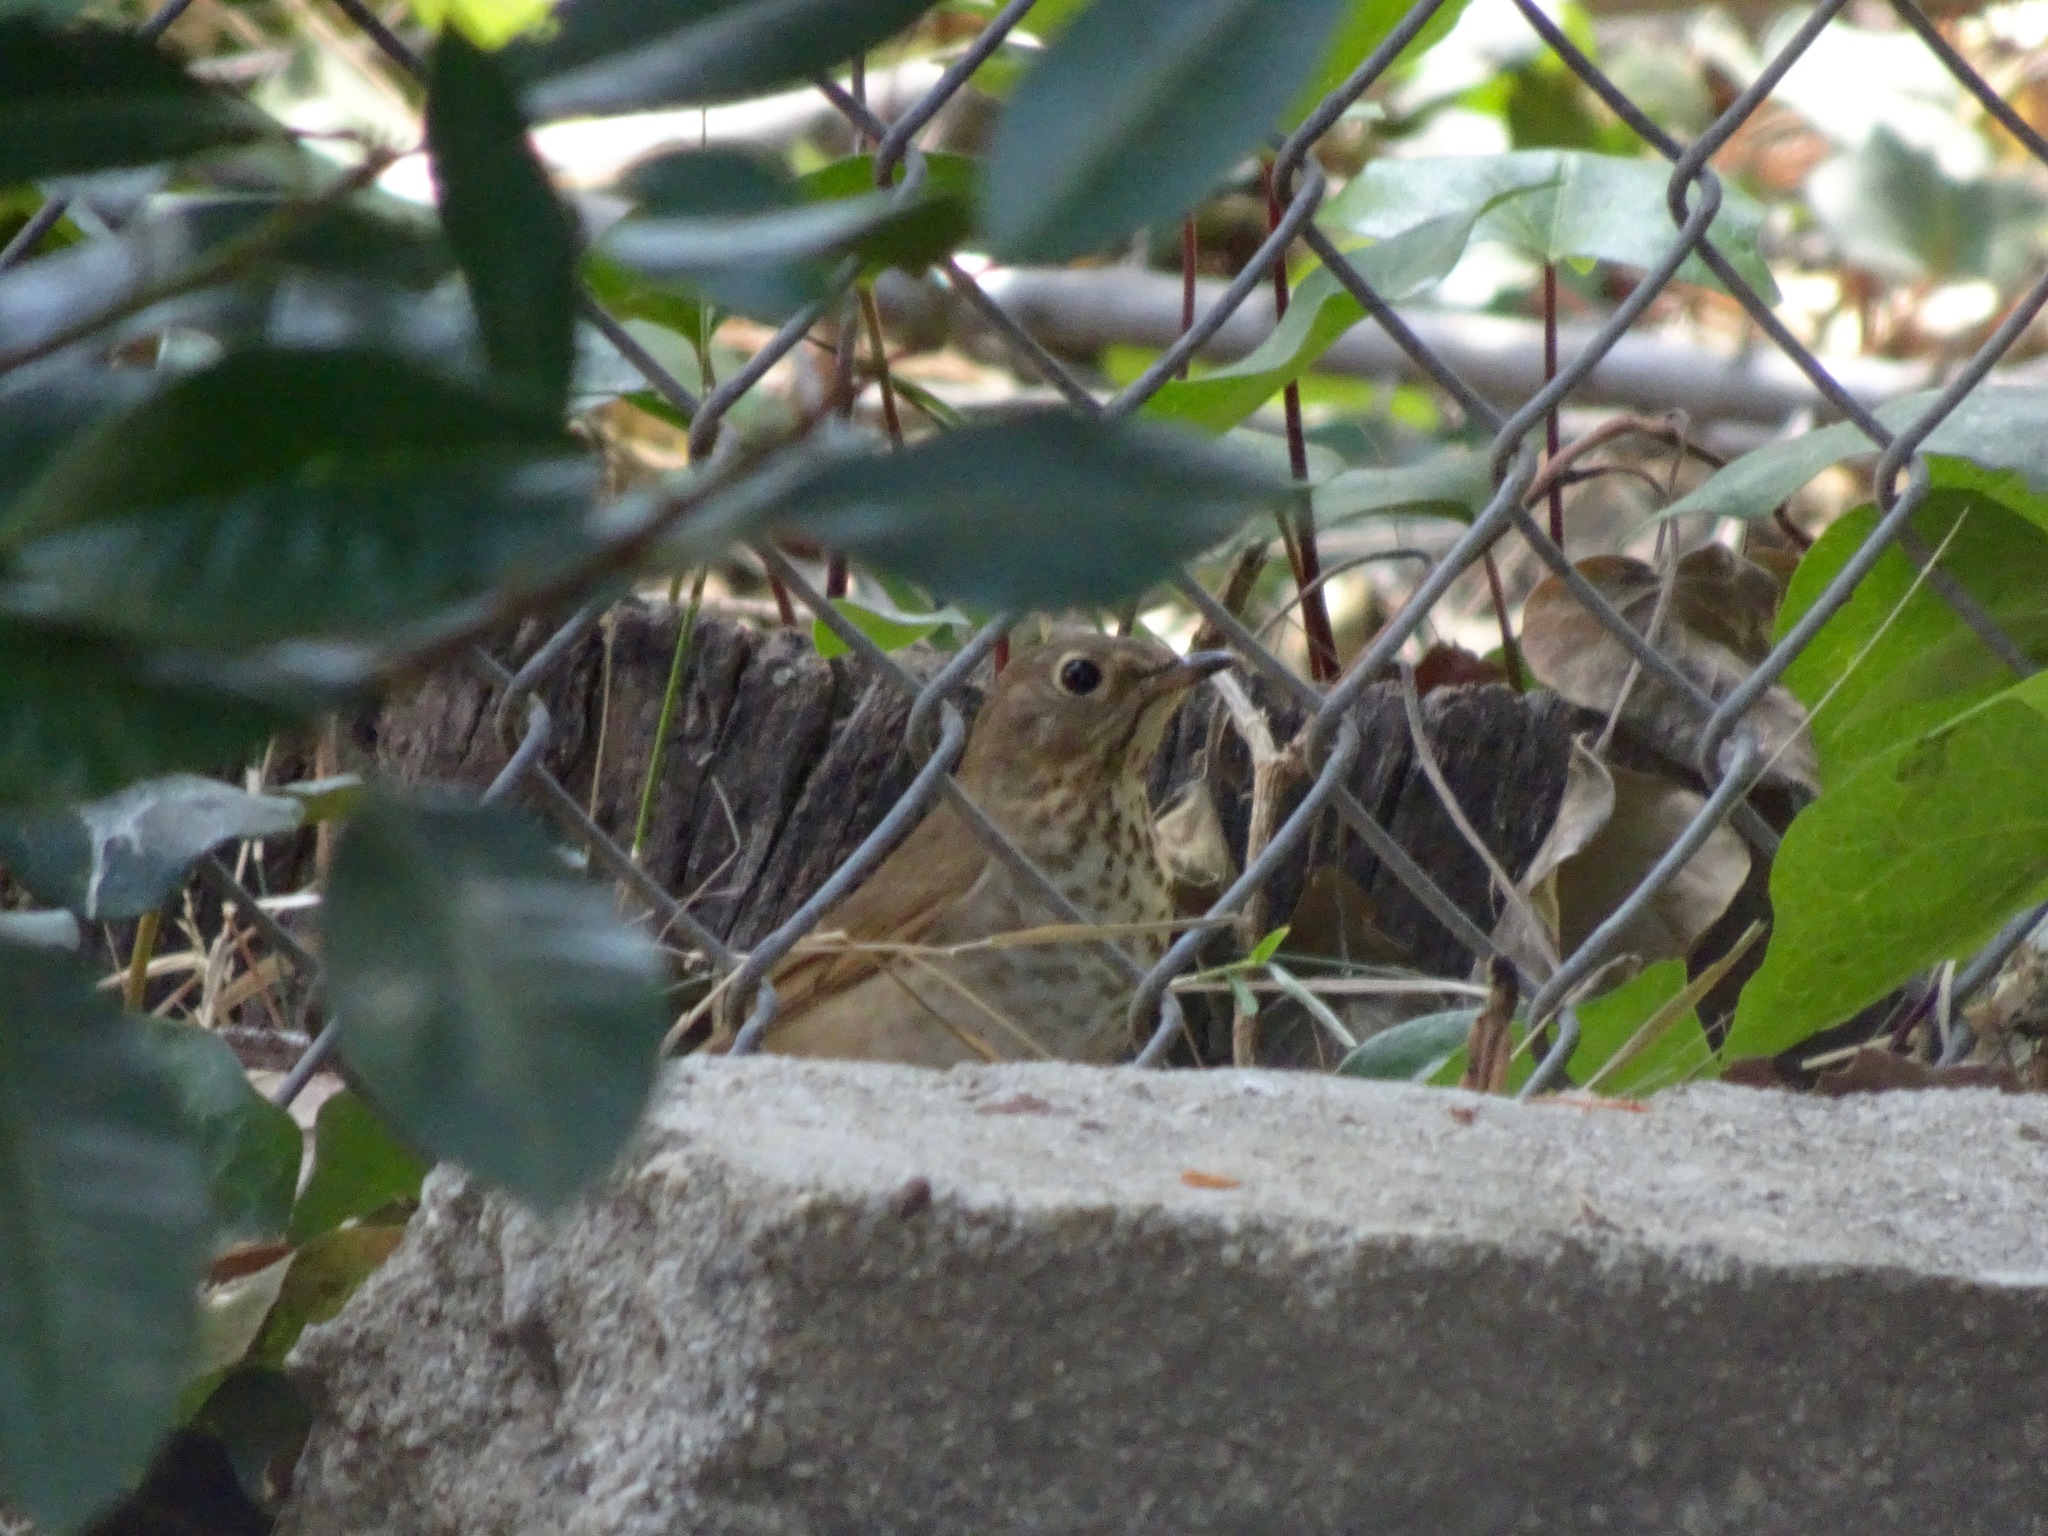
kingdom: Animalia
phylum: Chordata
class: Aves
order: Passeriformes
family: Turdidae
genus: Catharus
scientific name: Catharus ustulatus
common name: Swainson's thrush
